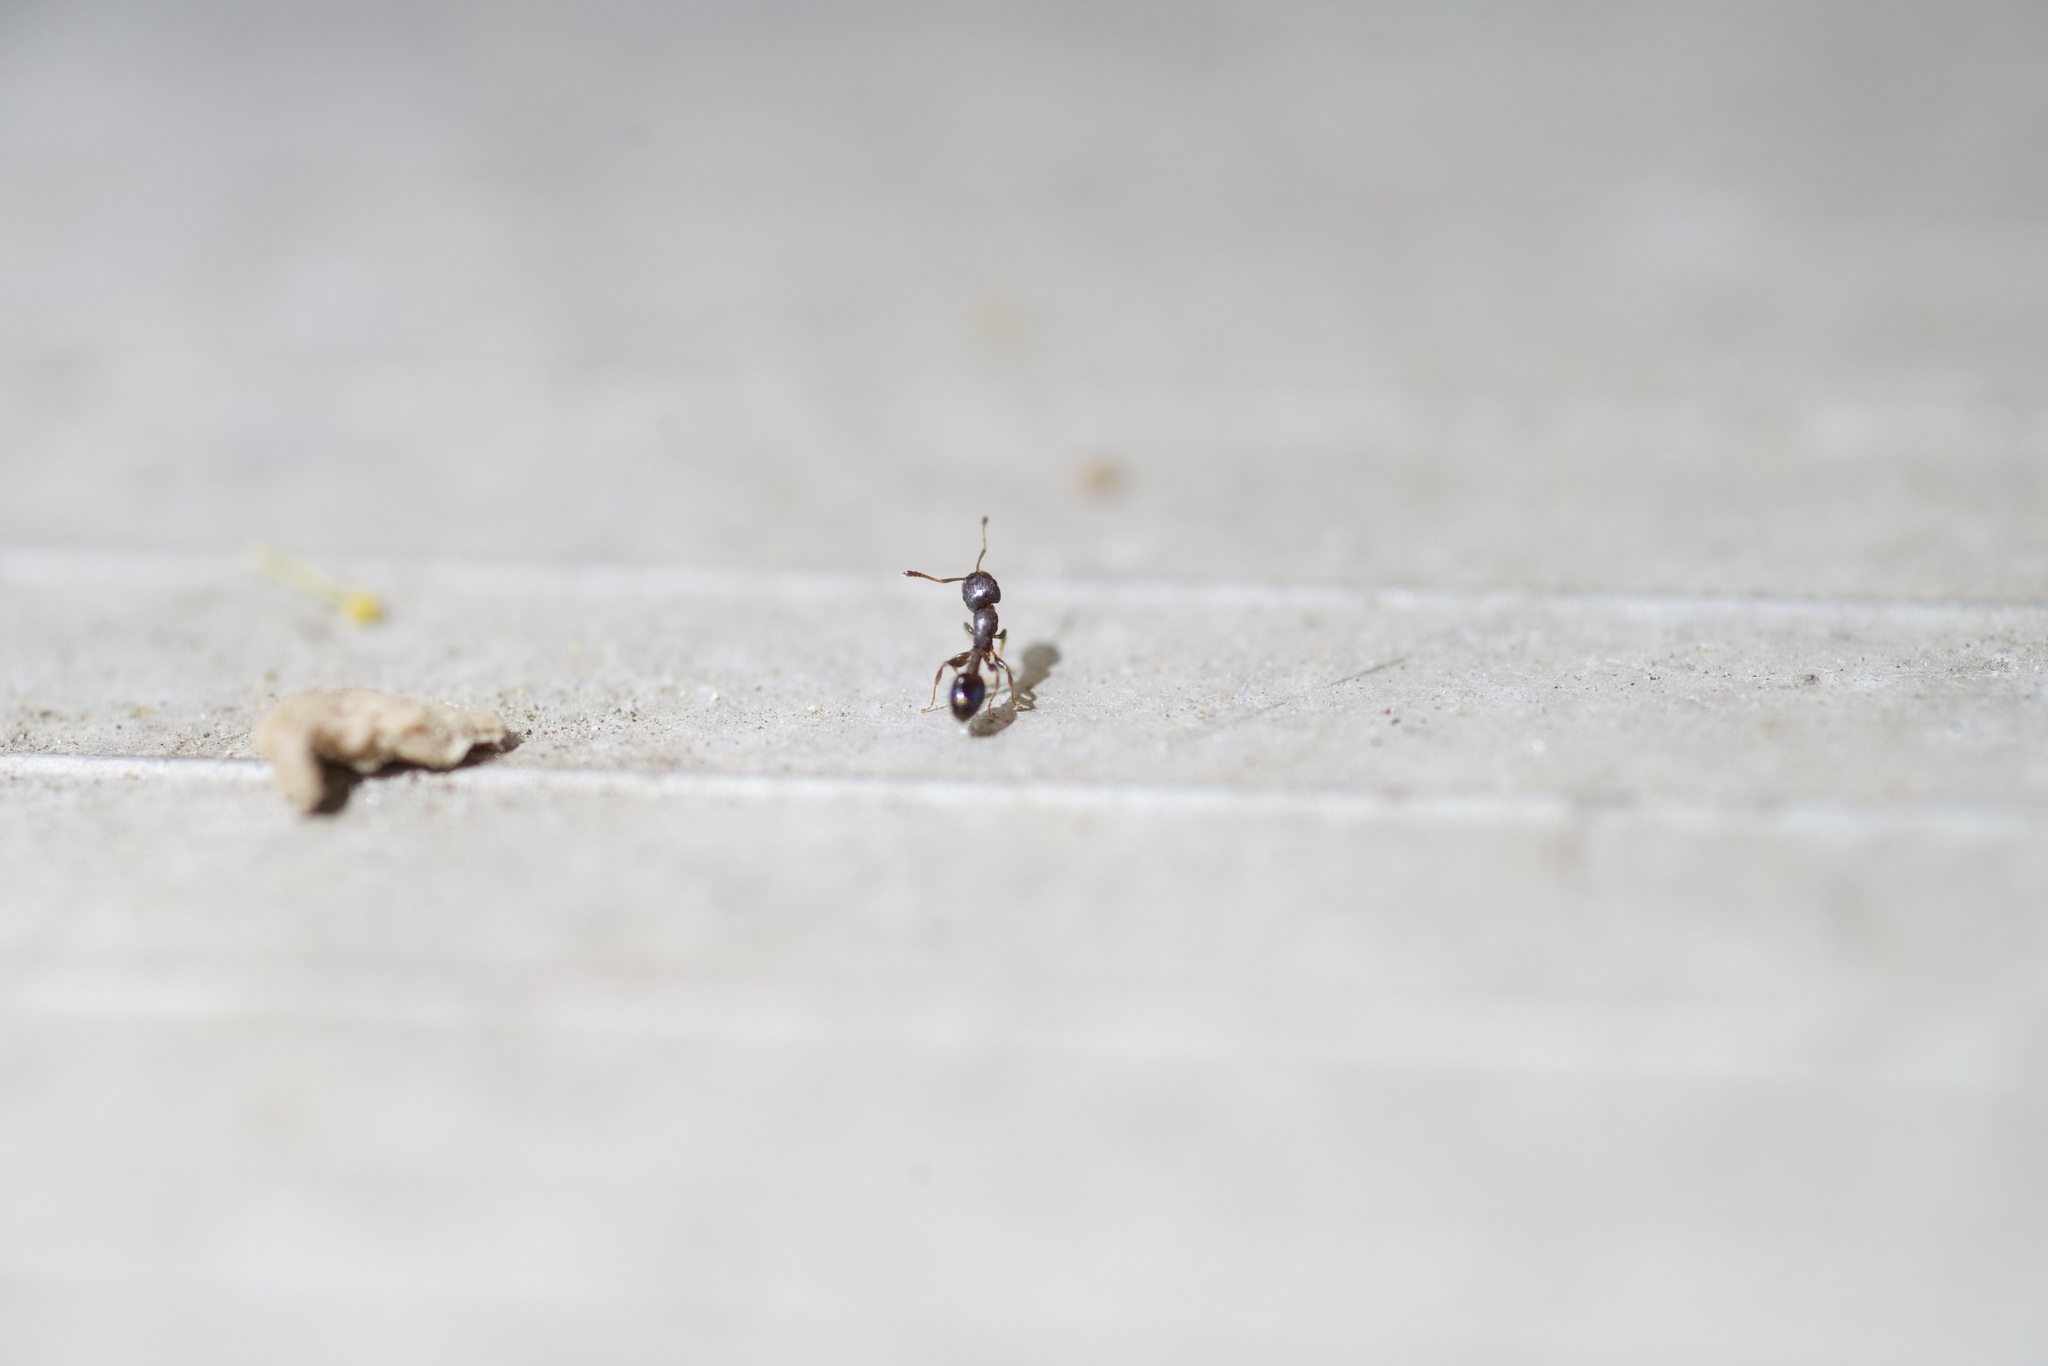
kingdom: Animalia
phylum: Arthropoda
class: Insecta
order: Hymenoptera
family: Formicidae
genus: Leptothorax
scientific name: Leptothorax schaumii
